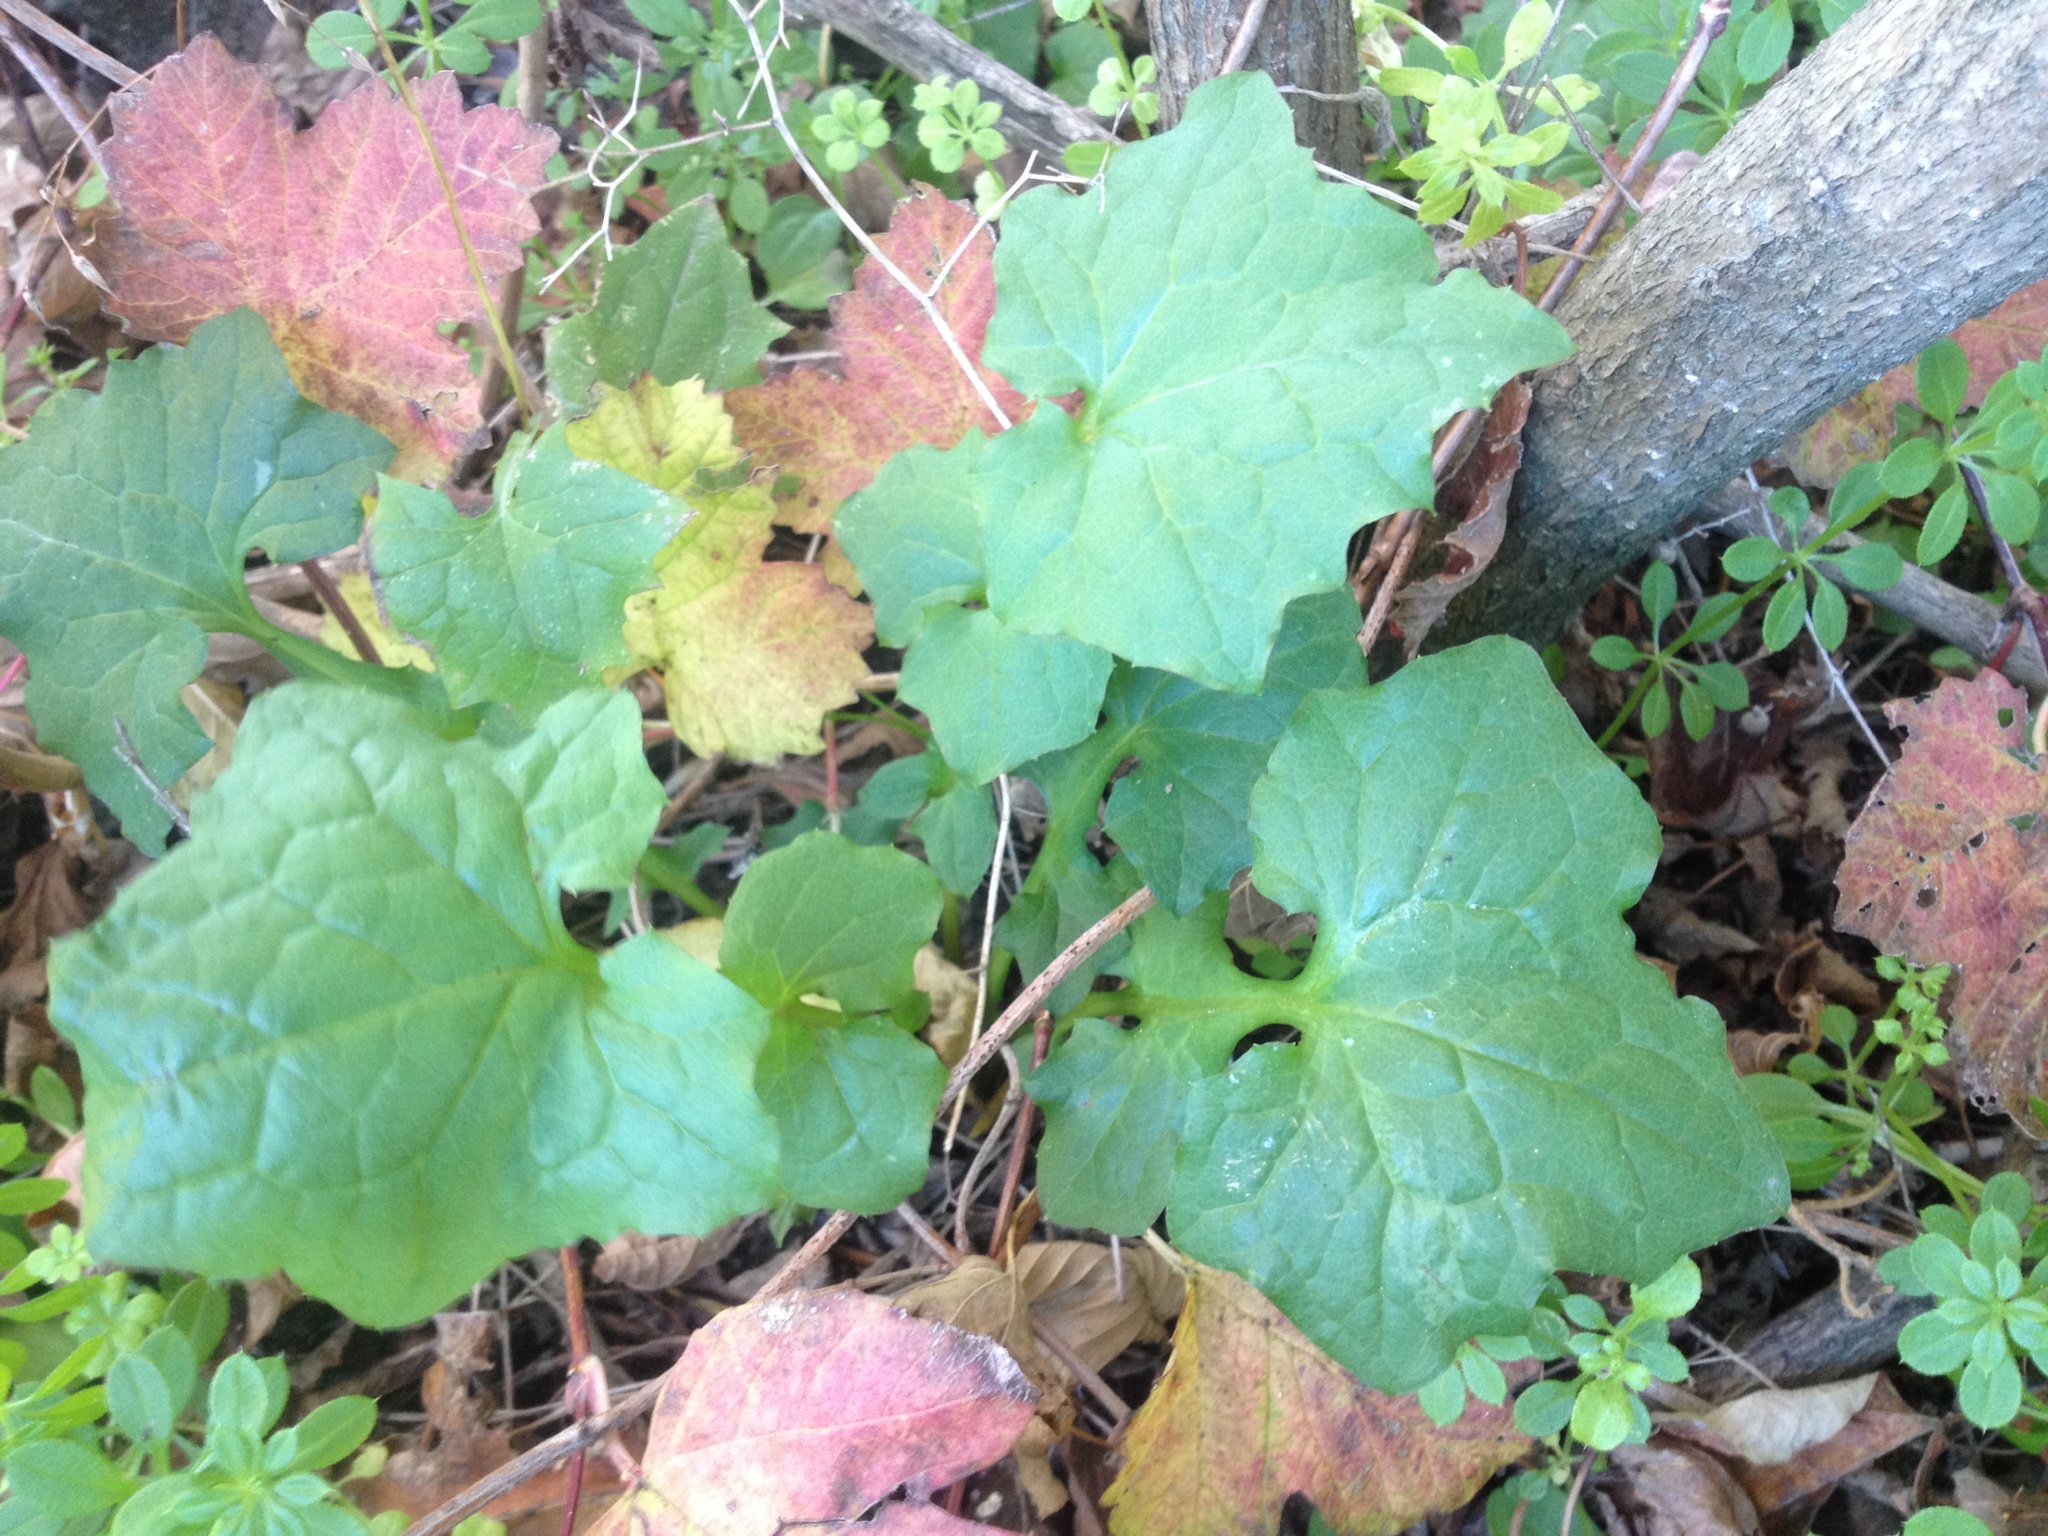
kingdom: Plantae
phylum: Tracheophyta
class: Magnoliopsida
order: Asterales
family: Asteraceae
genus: Mycelis
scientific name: Mycelis muralis
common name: Wall lettuce
